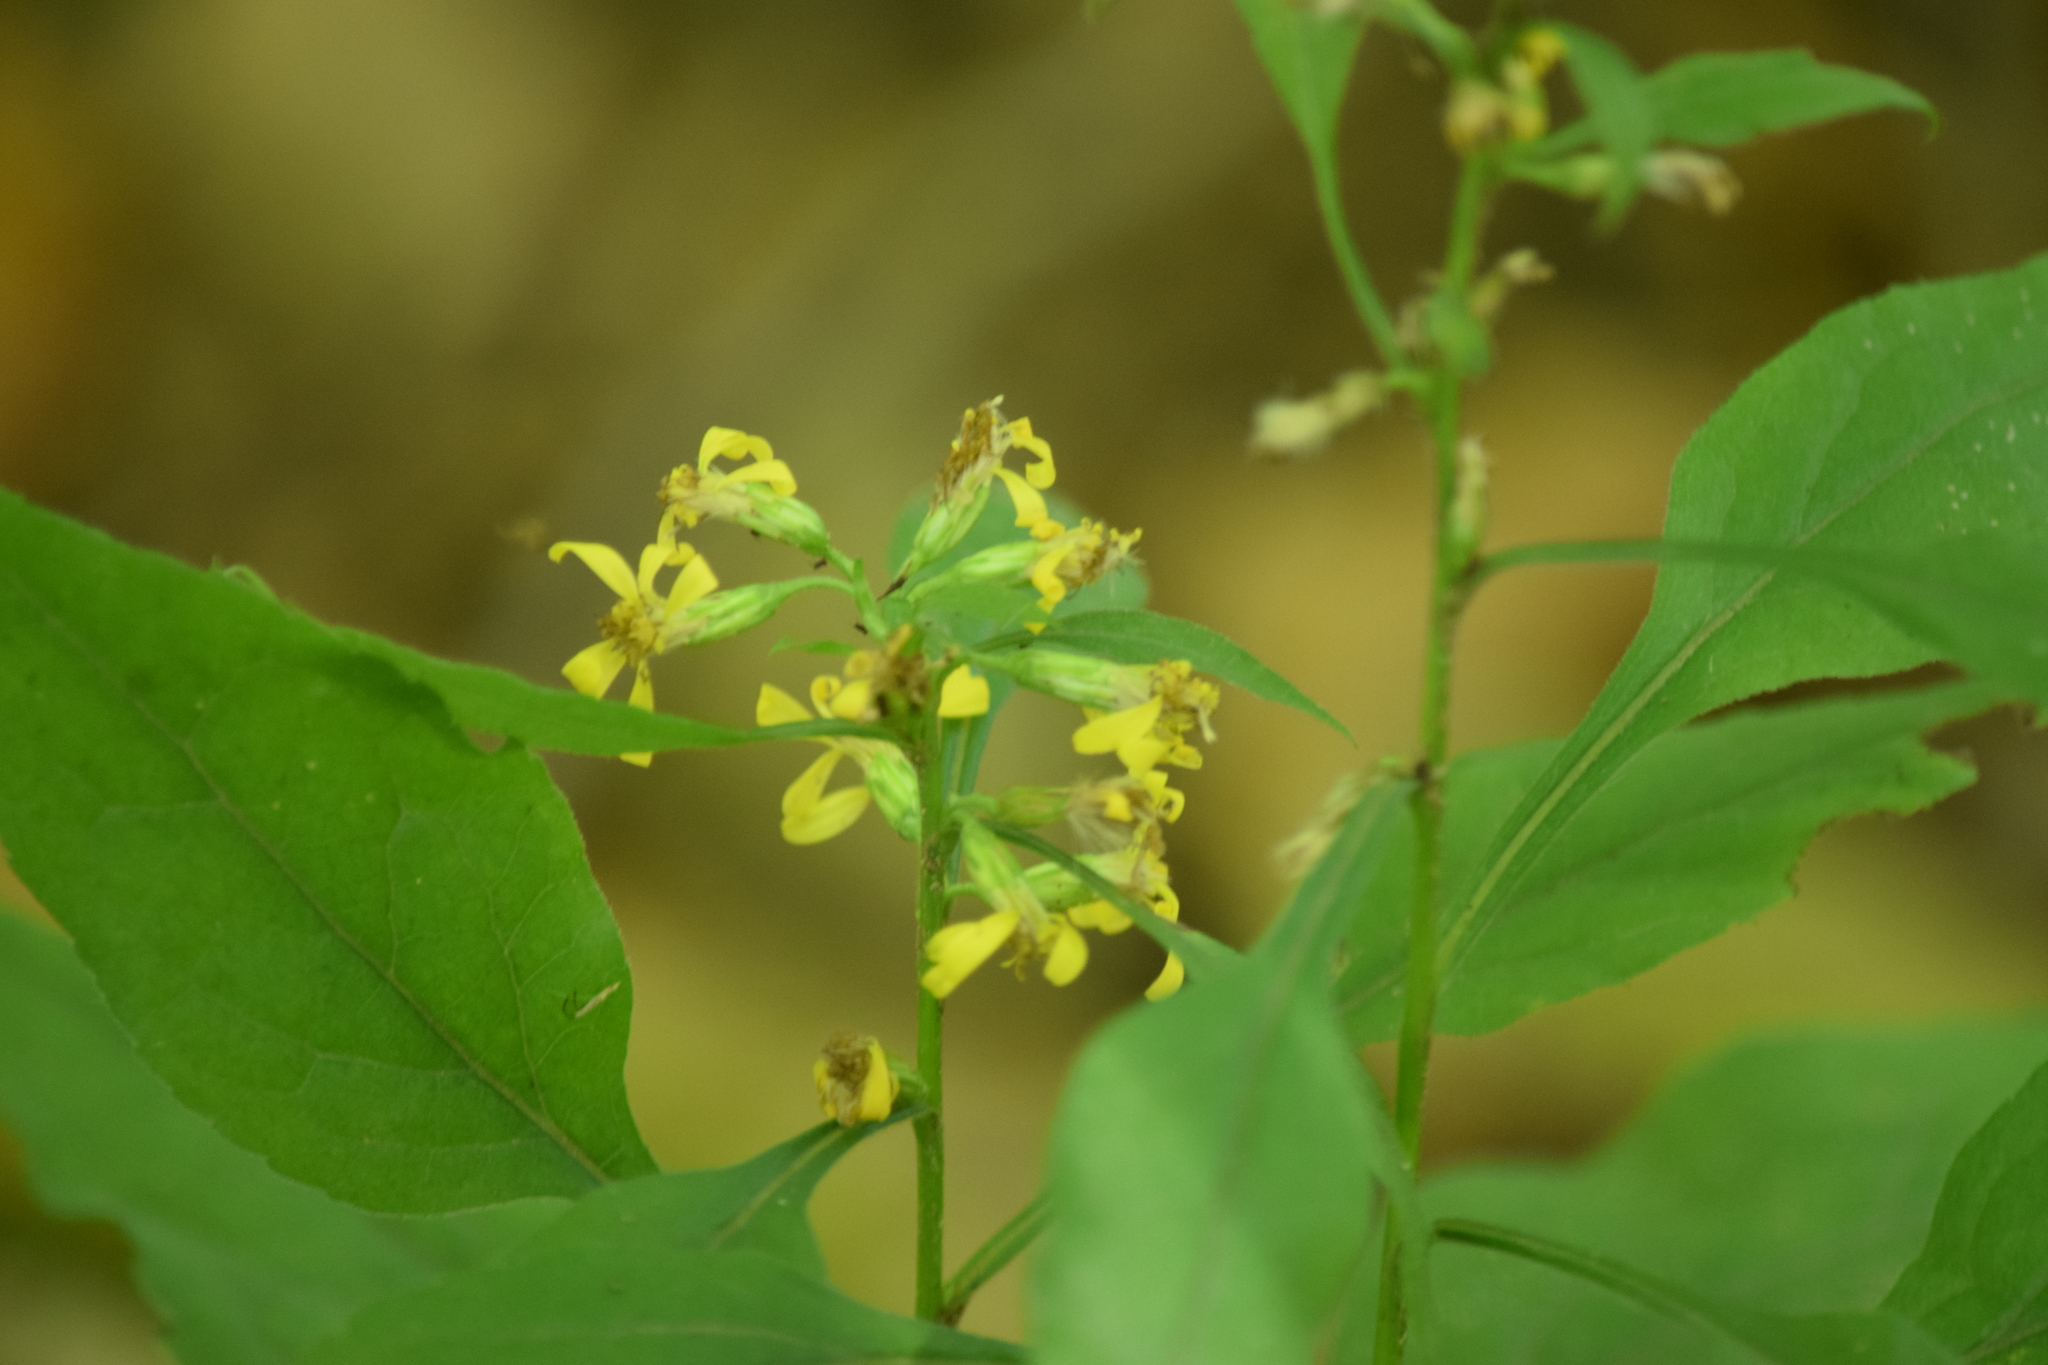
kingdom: Plantae
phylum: Tracheophyta
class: Magnoliopsida
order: Asterales
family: Asteraceae
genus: Solidago
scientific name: Solidago virgaurea
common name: Goldenrod
